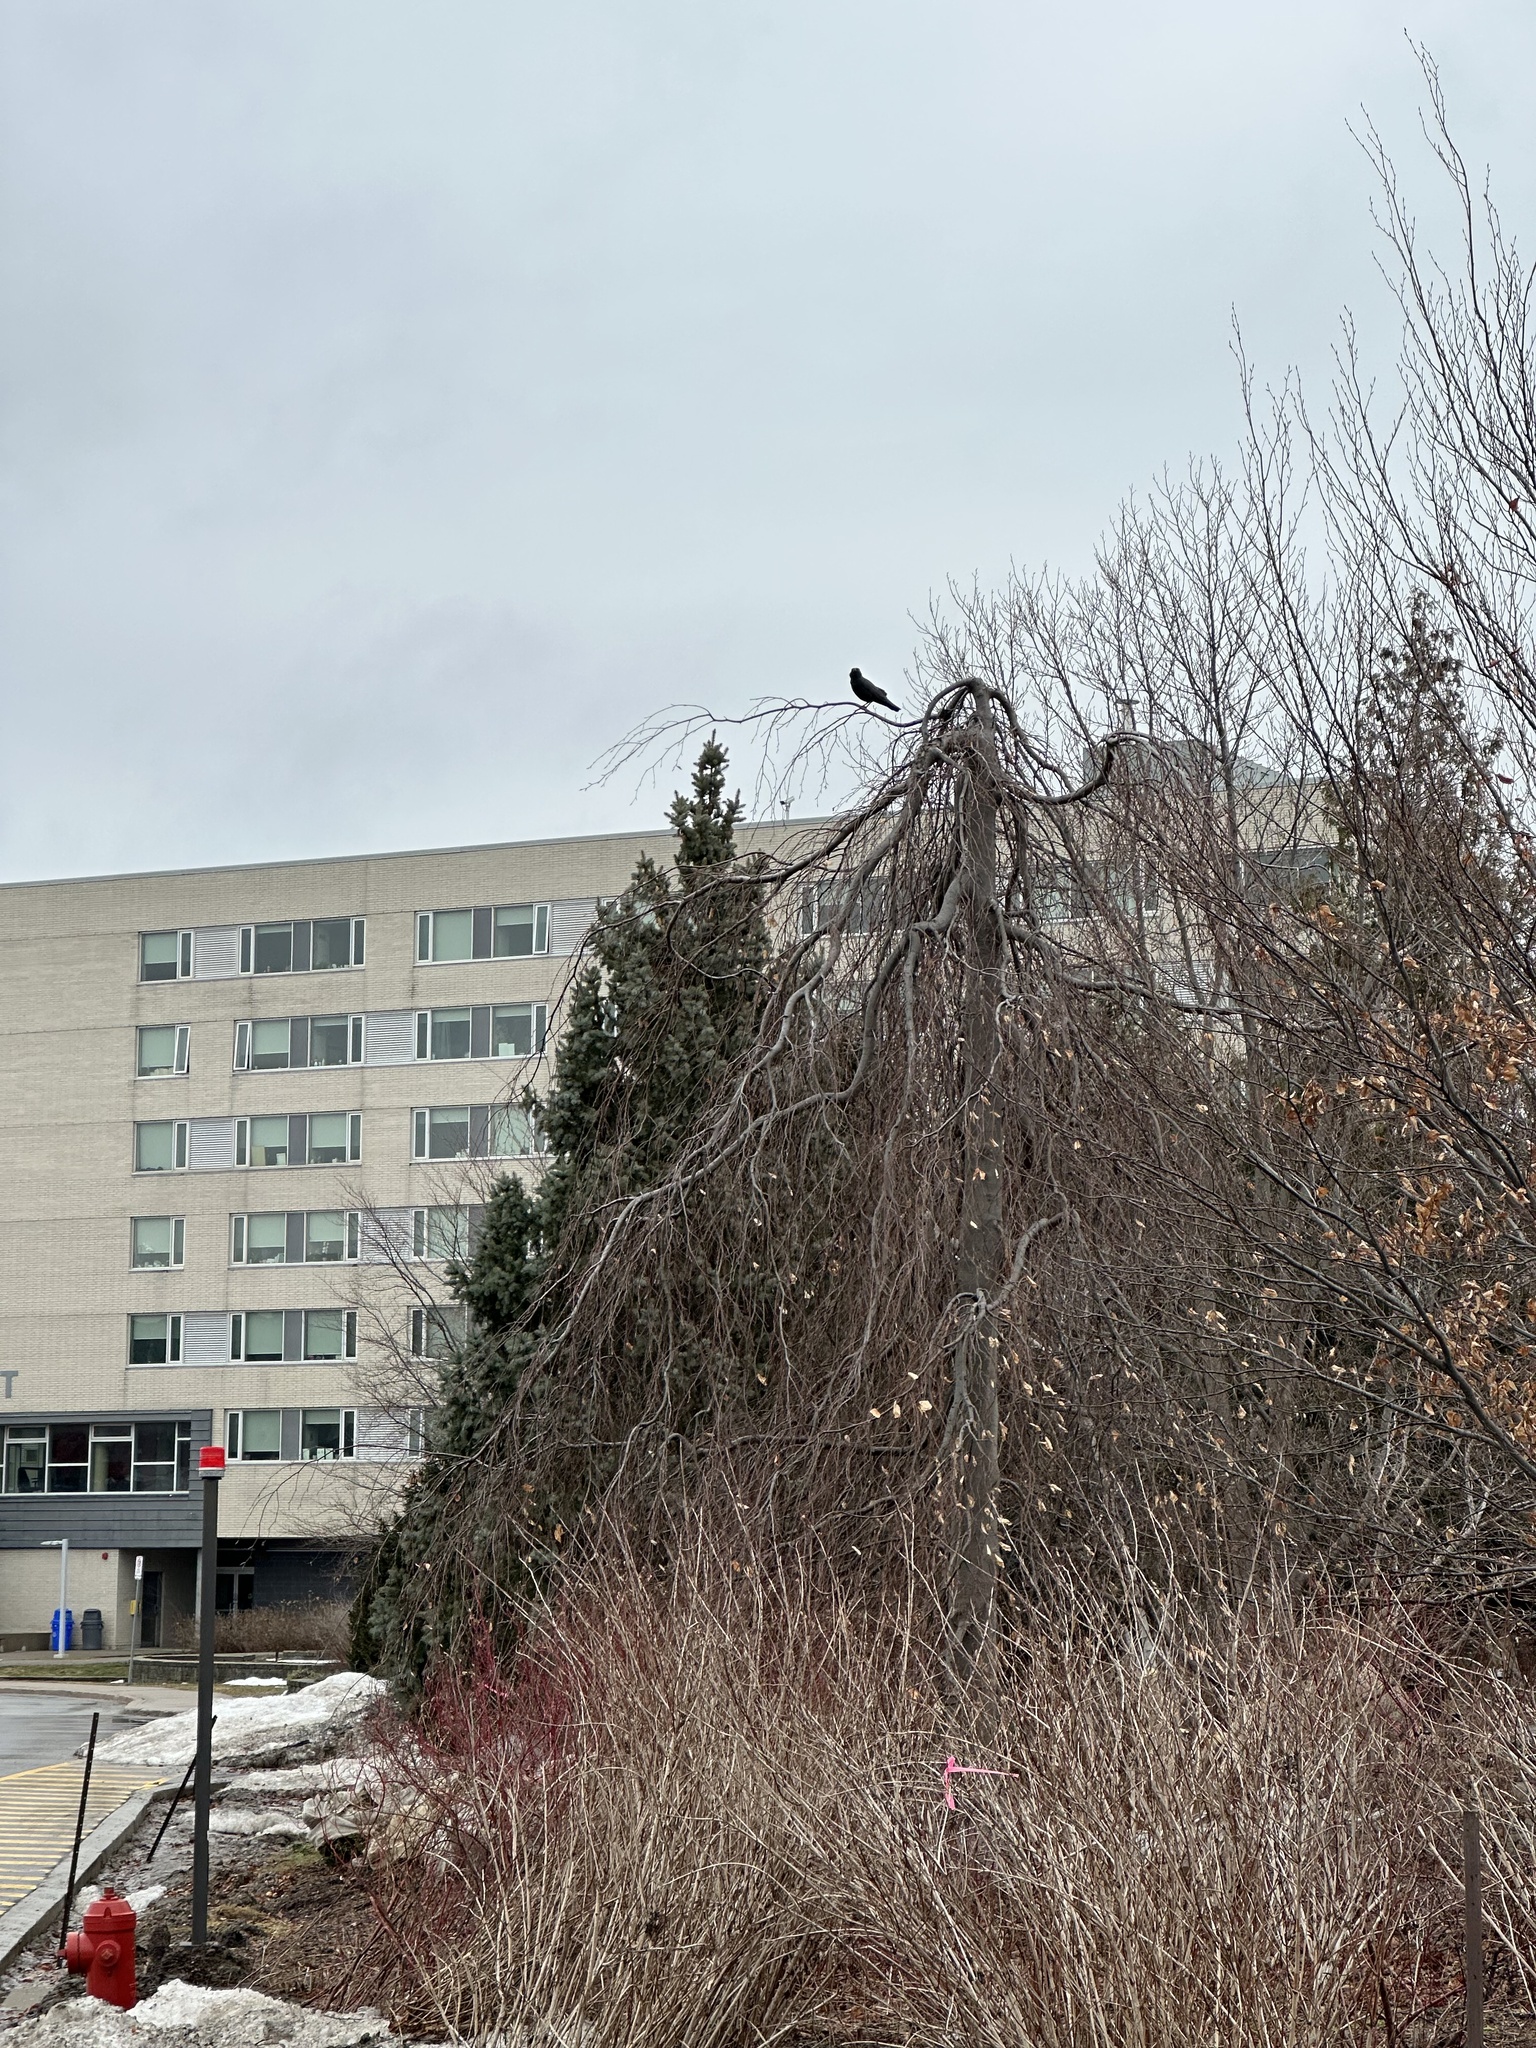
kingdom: Animalia
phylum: Chordata
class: Aves
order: Passeriformes
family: Corvidae
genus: Corvus
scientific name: Corvus brachyrhynchos
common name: American crow
